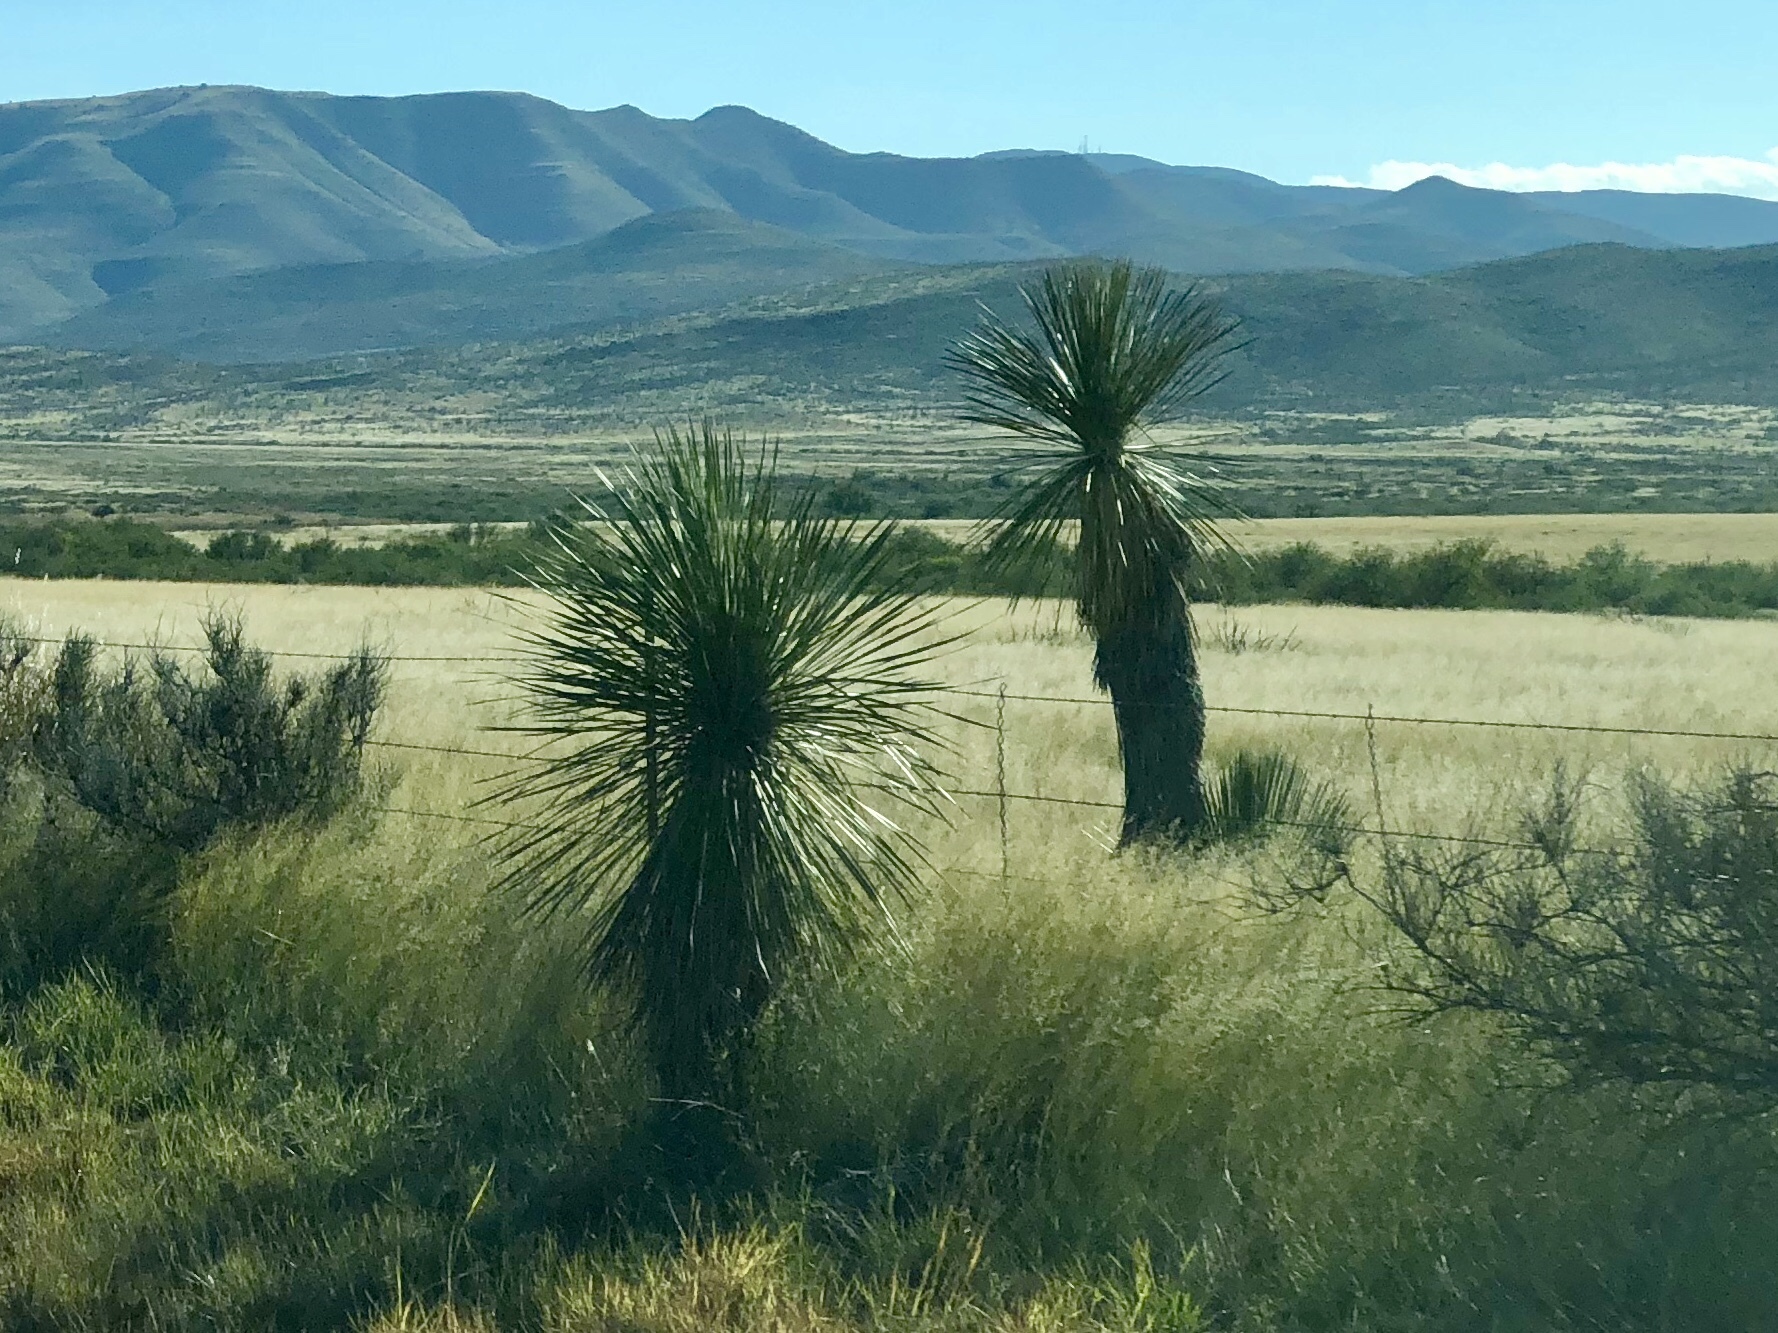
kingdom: Plantae
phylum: Tracheophyta
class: Liliopsida
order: Asparagales
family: Asparagaceae
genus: Yucca
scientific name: Yucca elata
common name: Palmella
